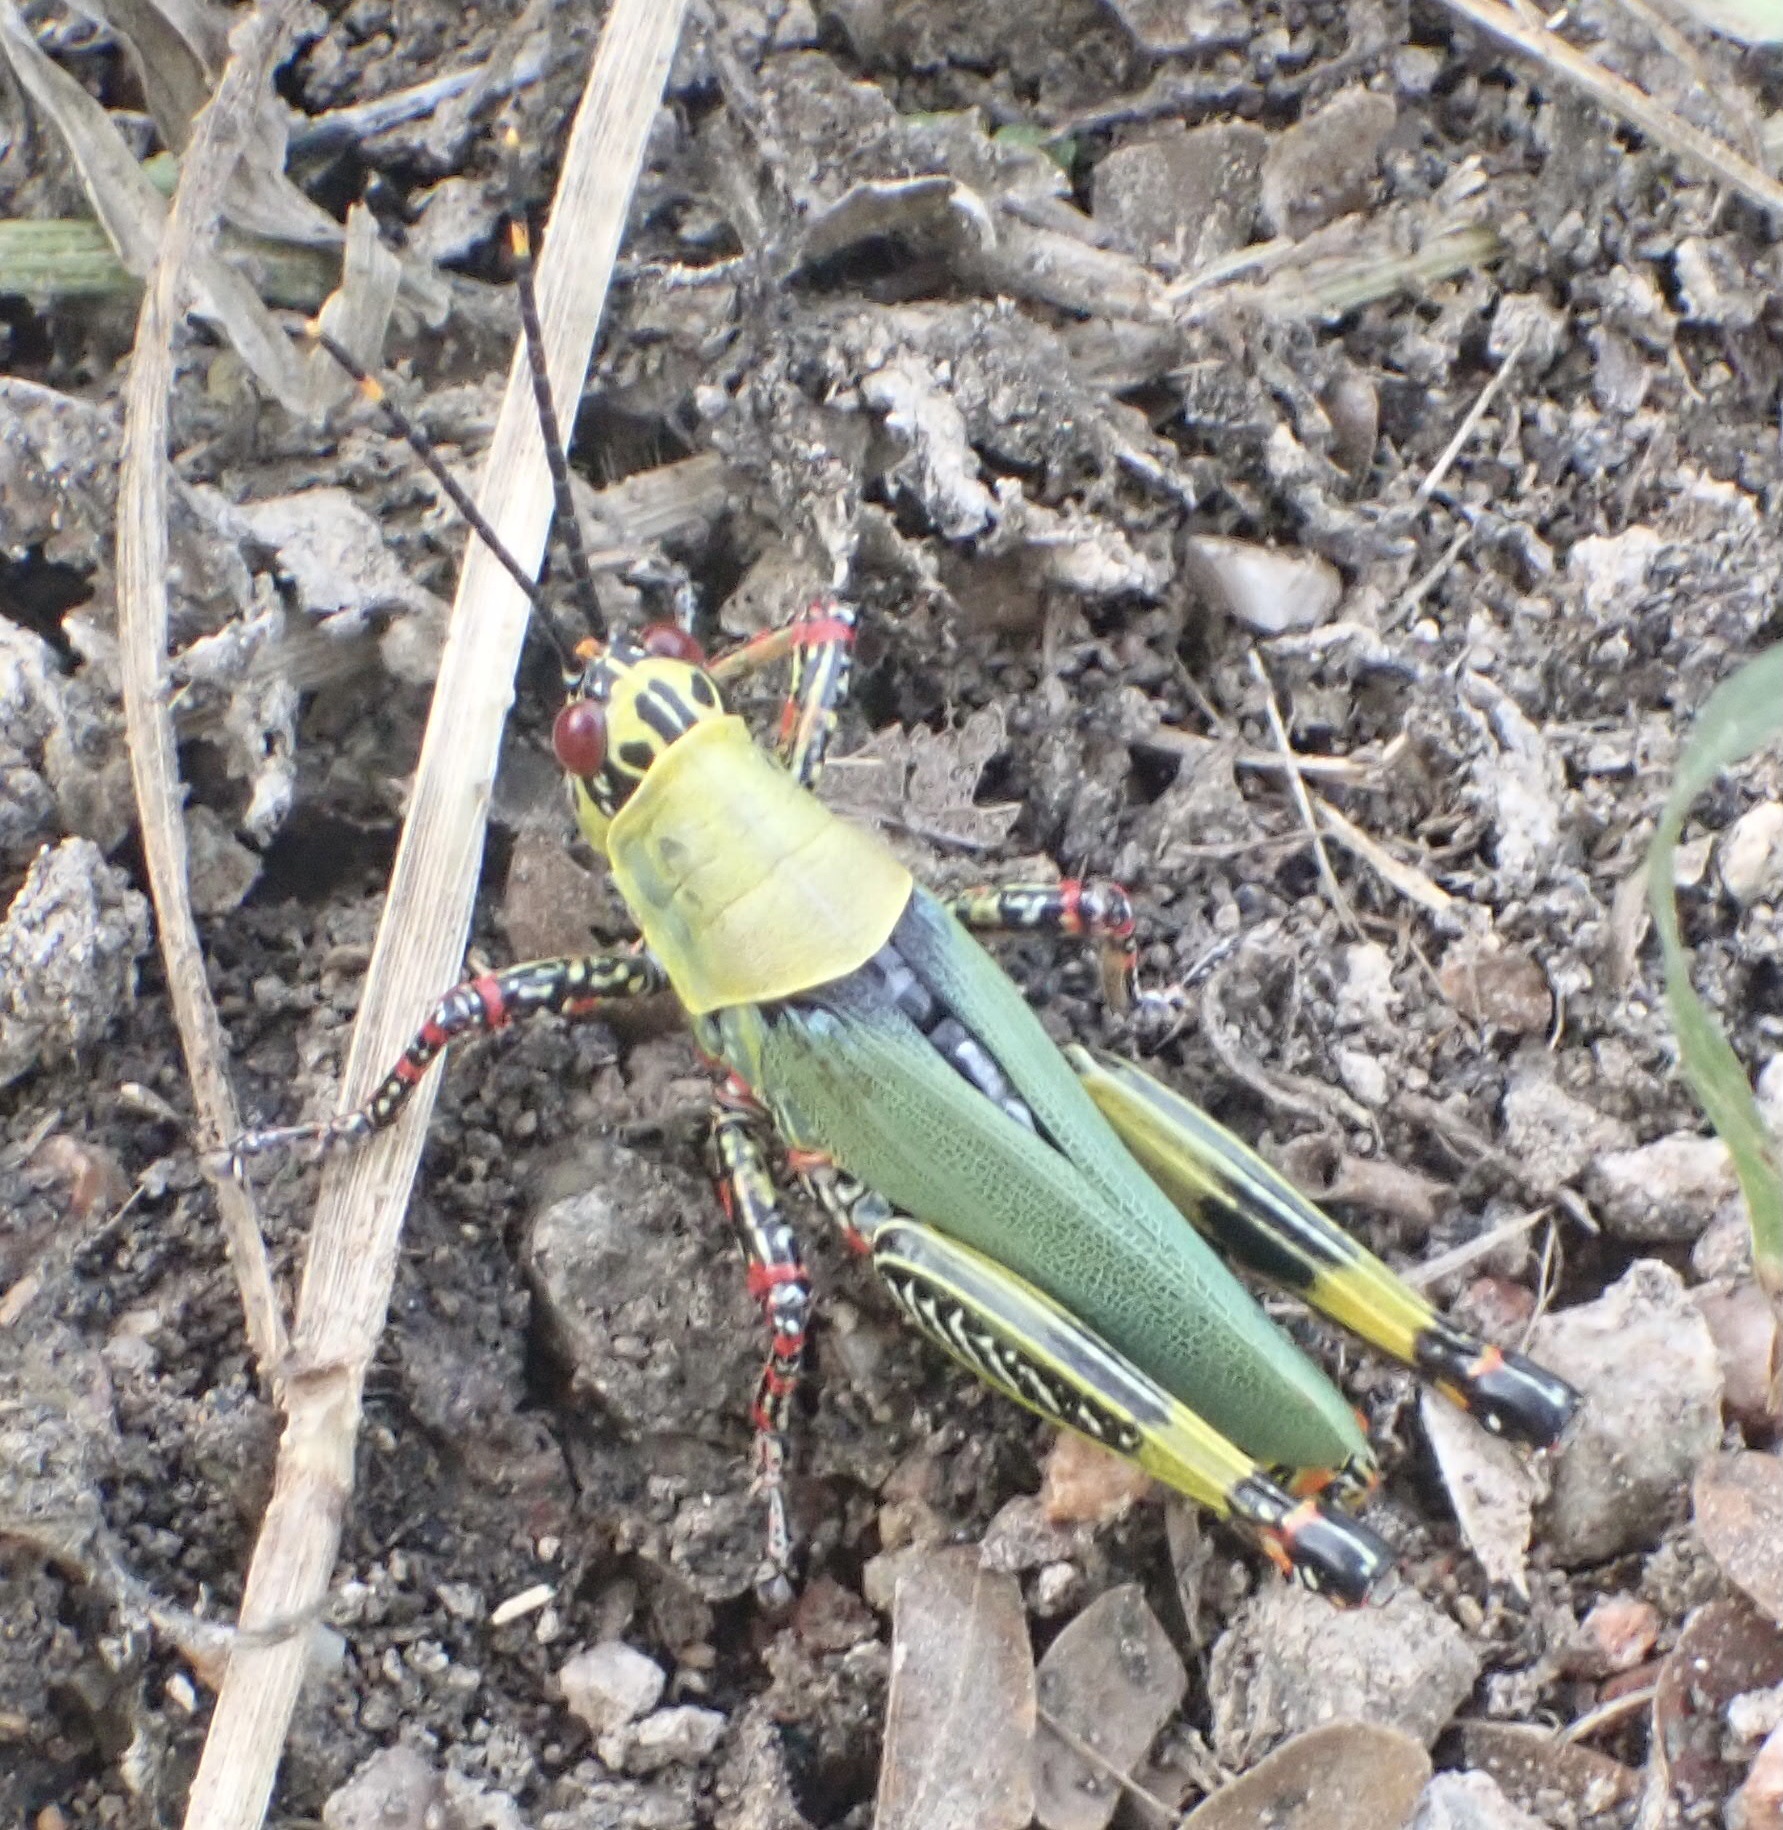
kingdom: Animalia
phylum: Arthropoda
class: Insecta
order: Orthoptera
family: Pyrgomorphidae
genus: Zonocerus
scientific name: Zonocerus variegatus
